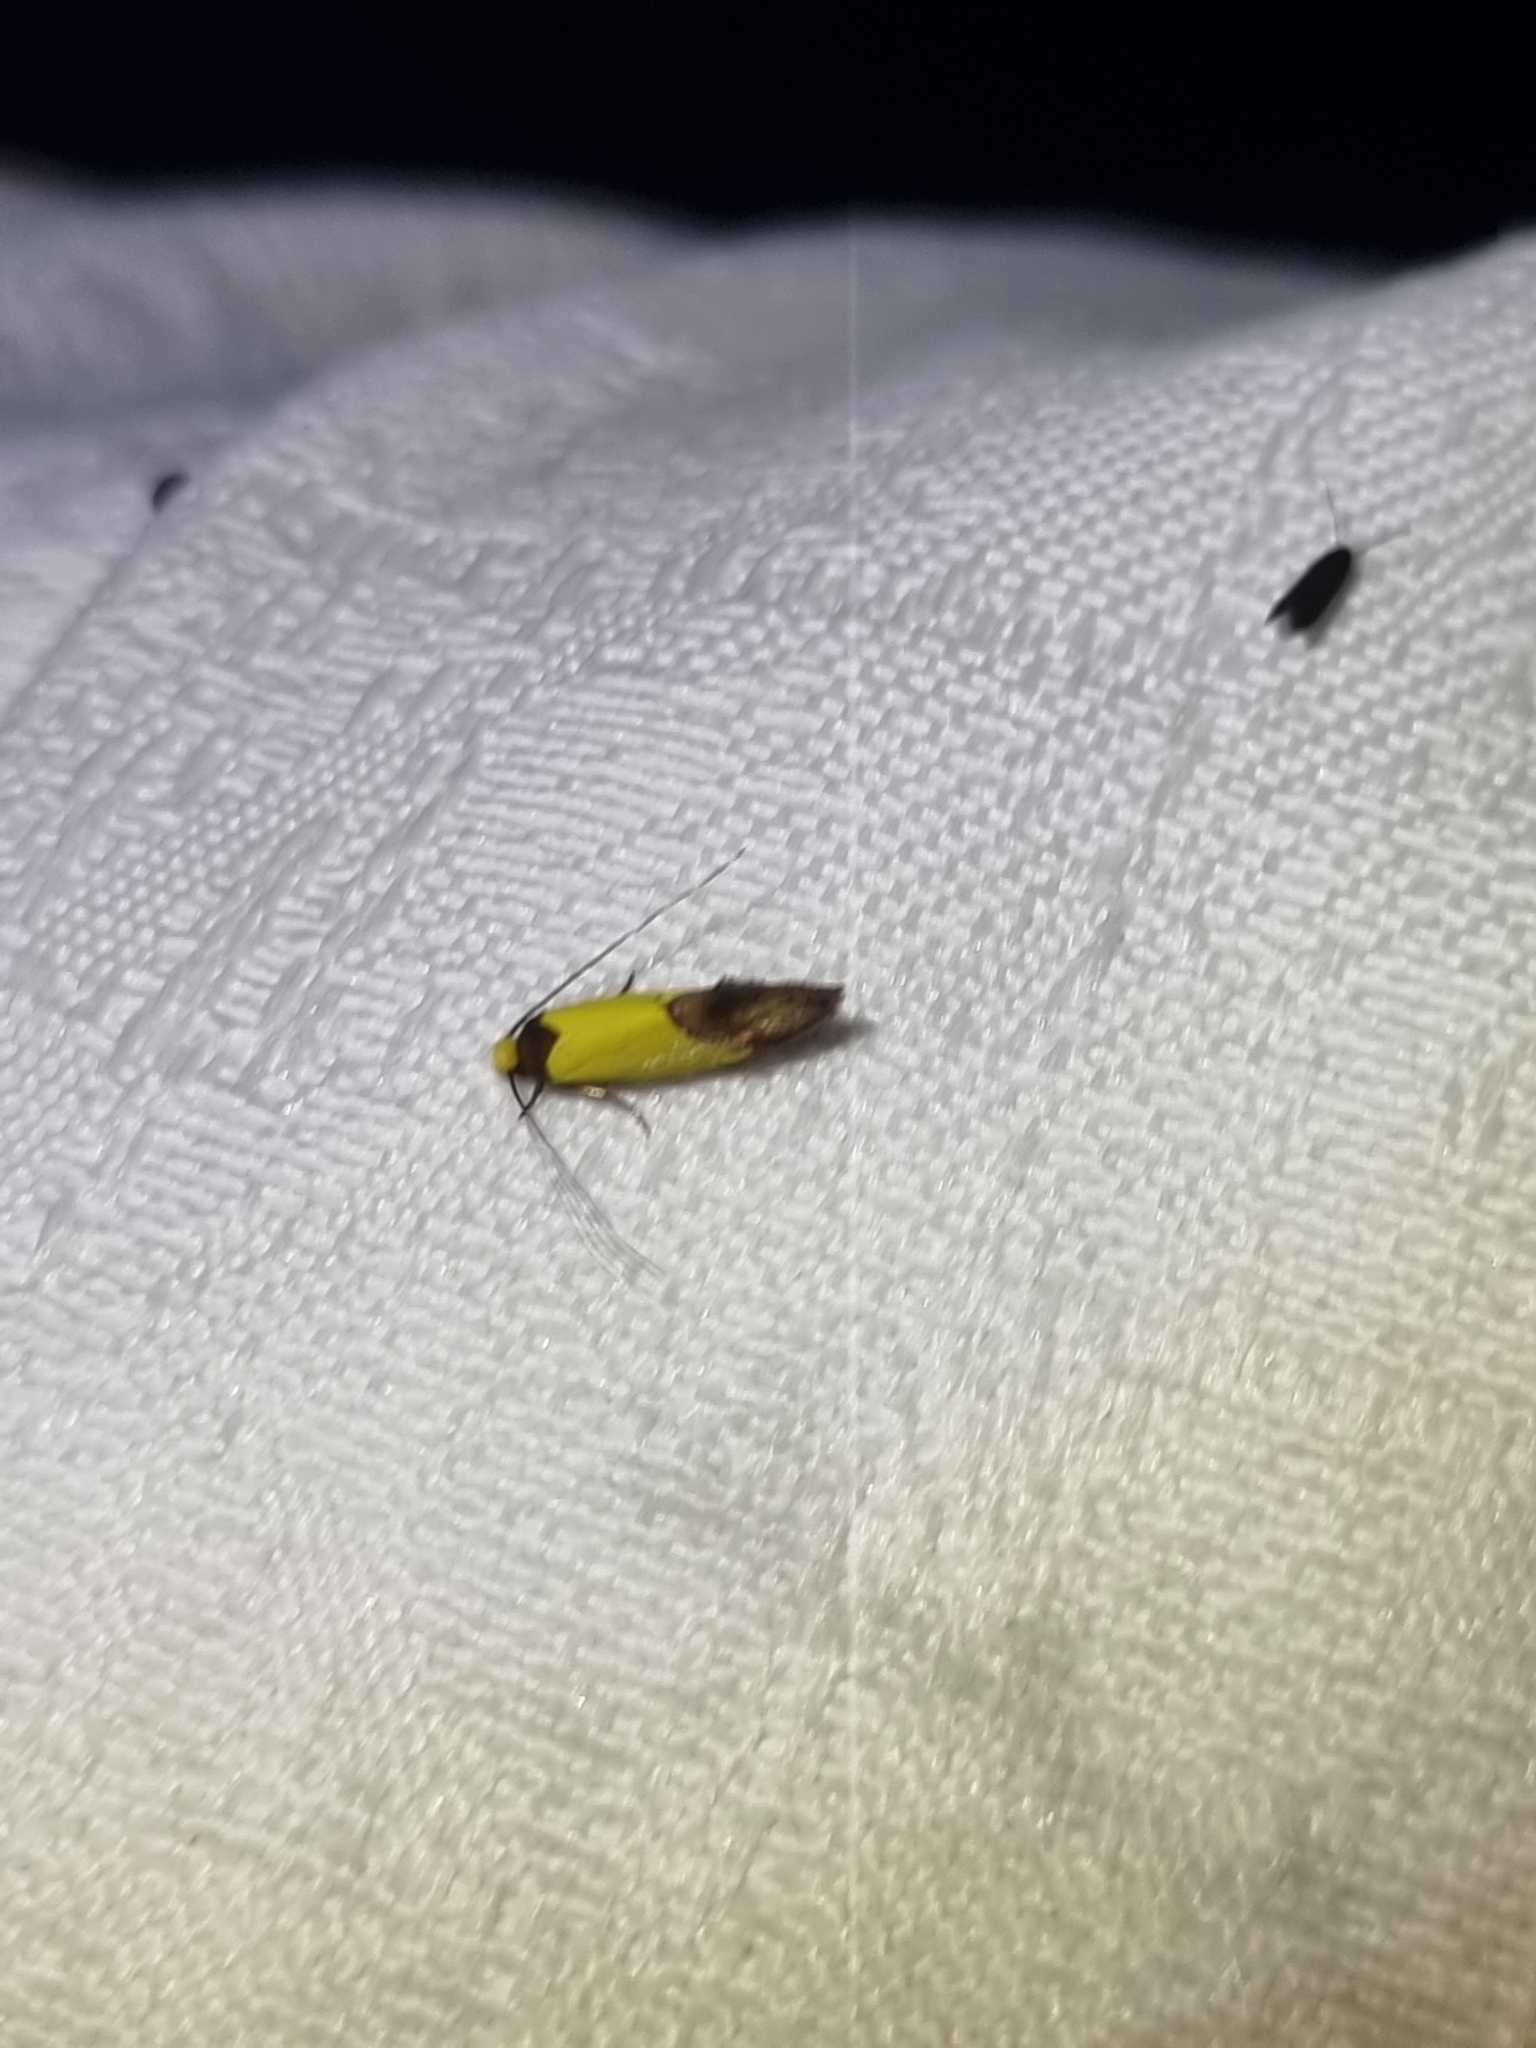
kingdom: Animalia
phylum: Arthropoda
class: Insecta
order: Lepidoptera
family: Tineidae
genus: Edosa
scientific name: Edosa xystidophora
